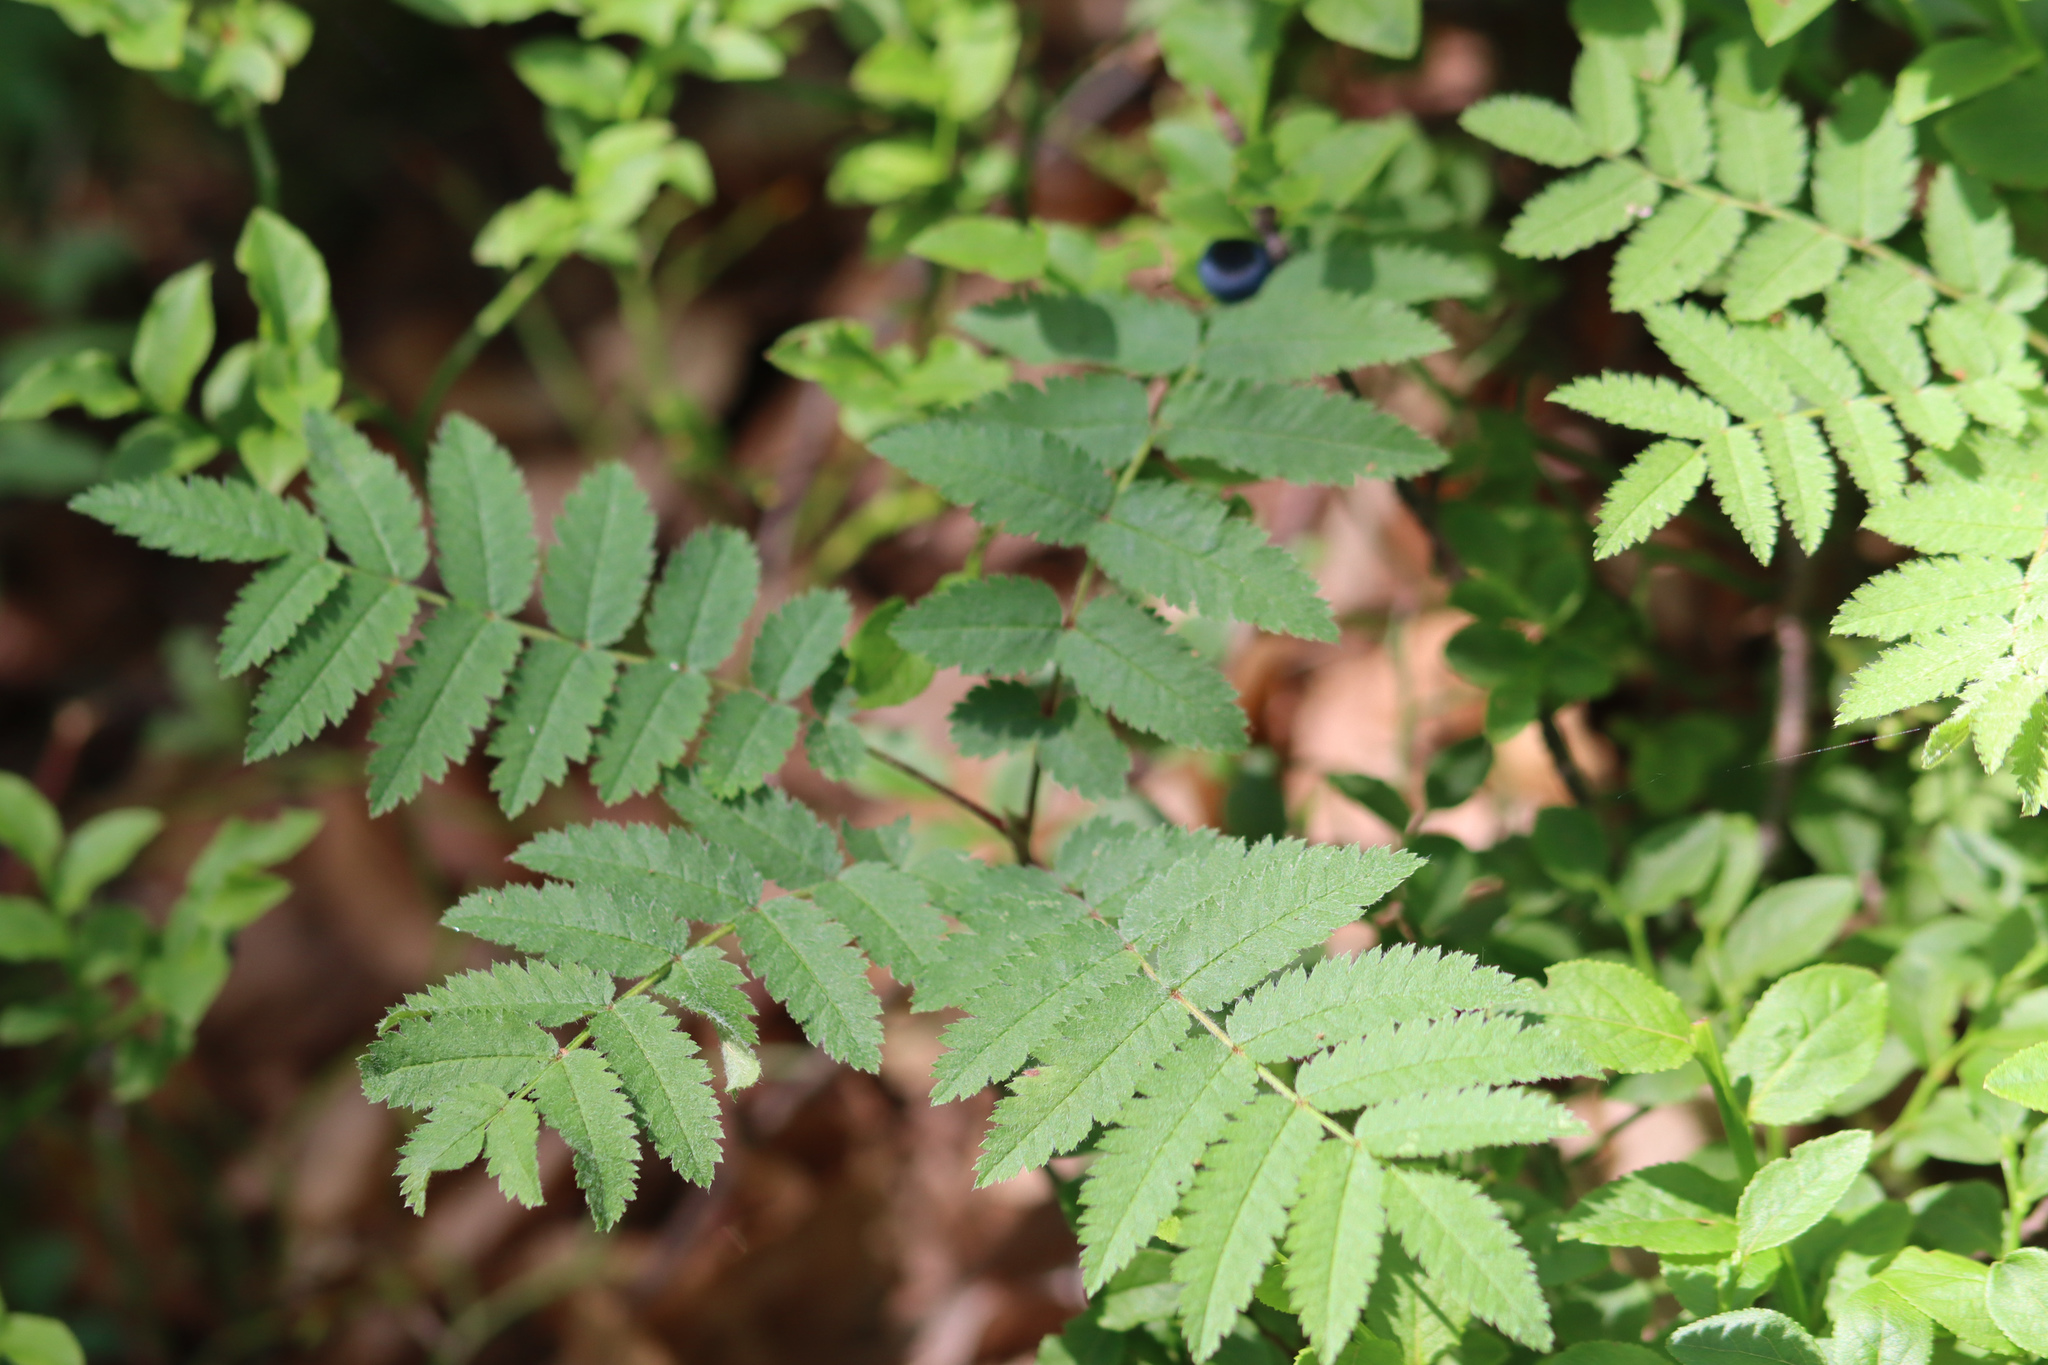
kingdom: Plantae
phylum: Tracheophyta
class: Magnoliopsida
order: Rosales
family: Rosaceae
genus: Sorbus
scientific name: Sorbus aucuparia
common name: Rowan
